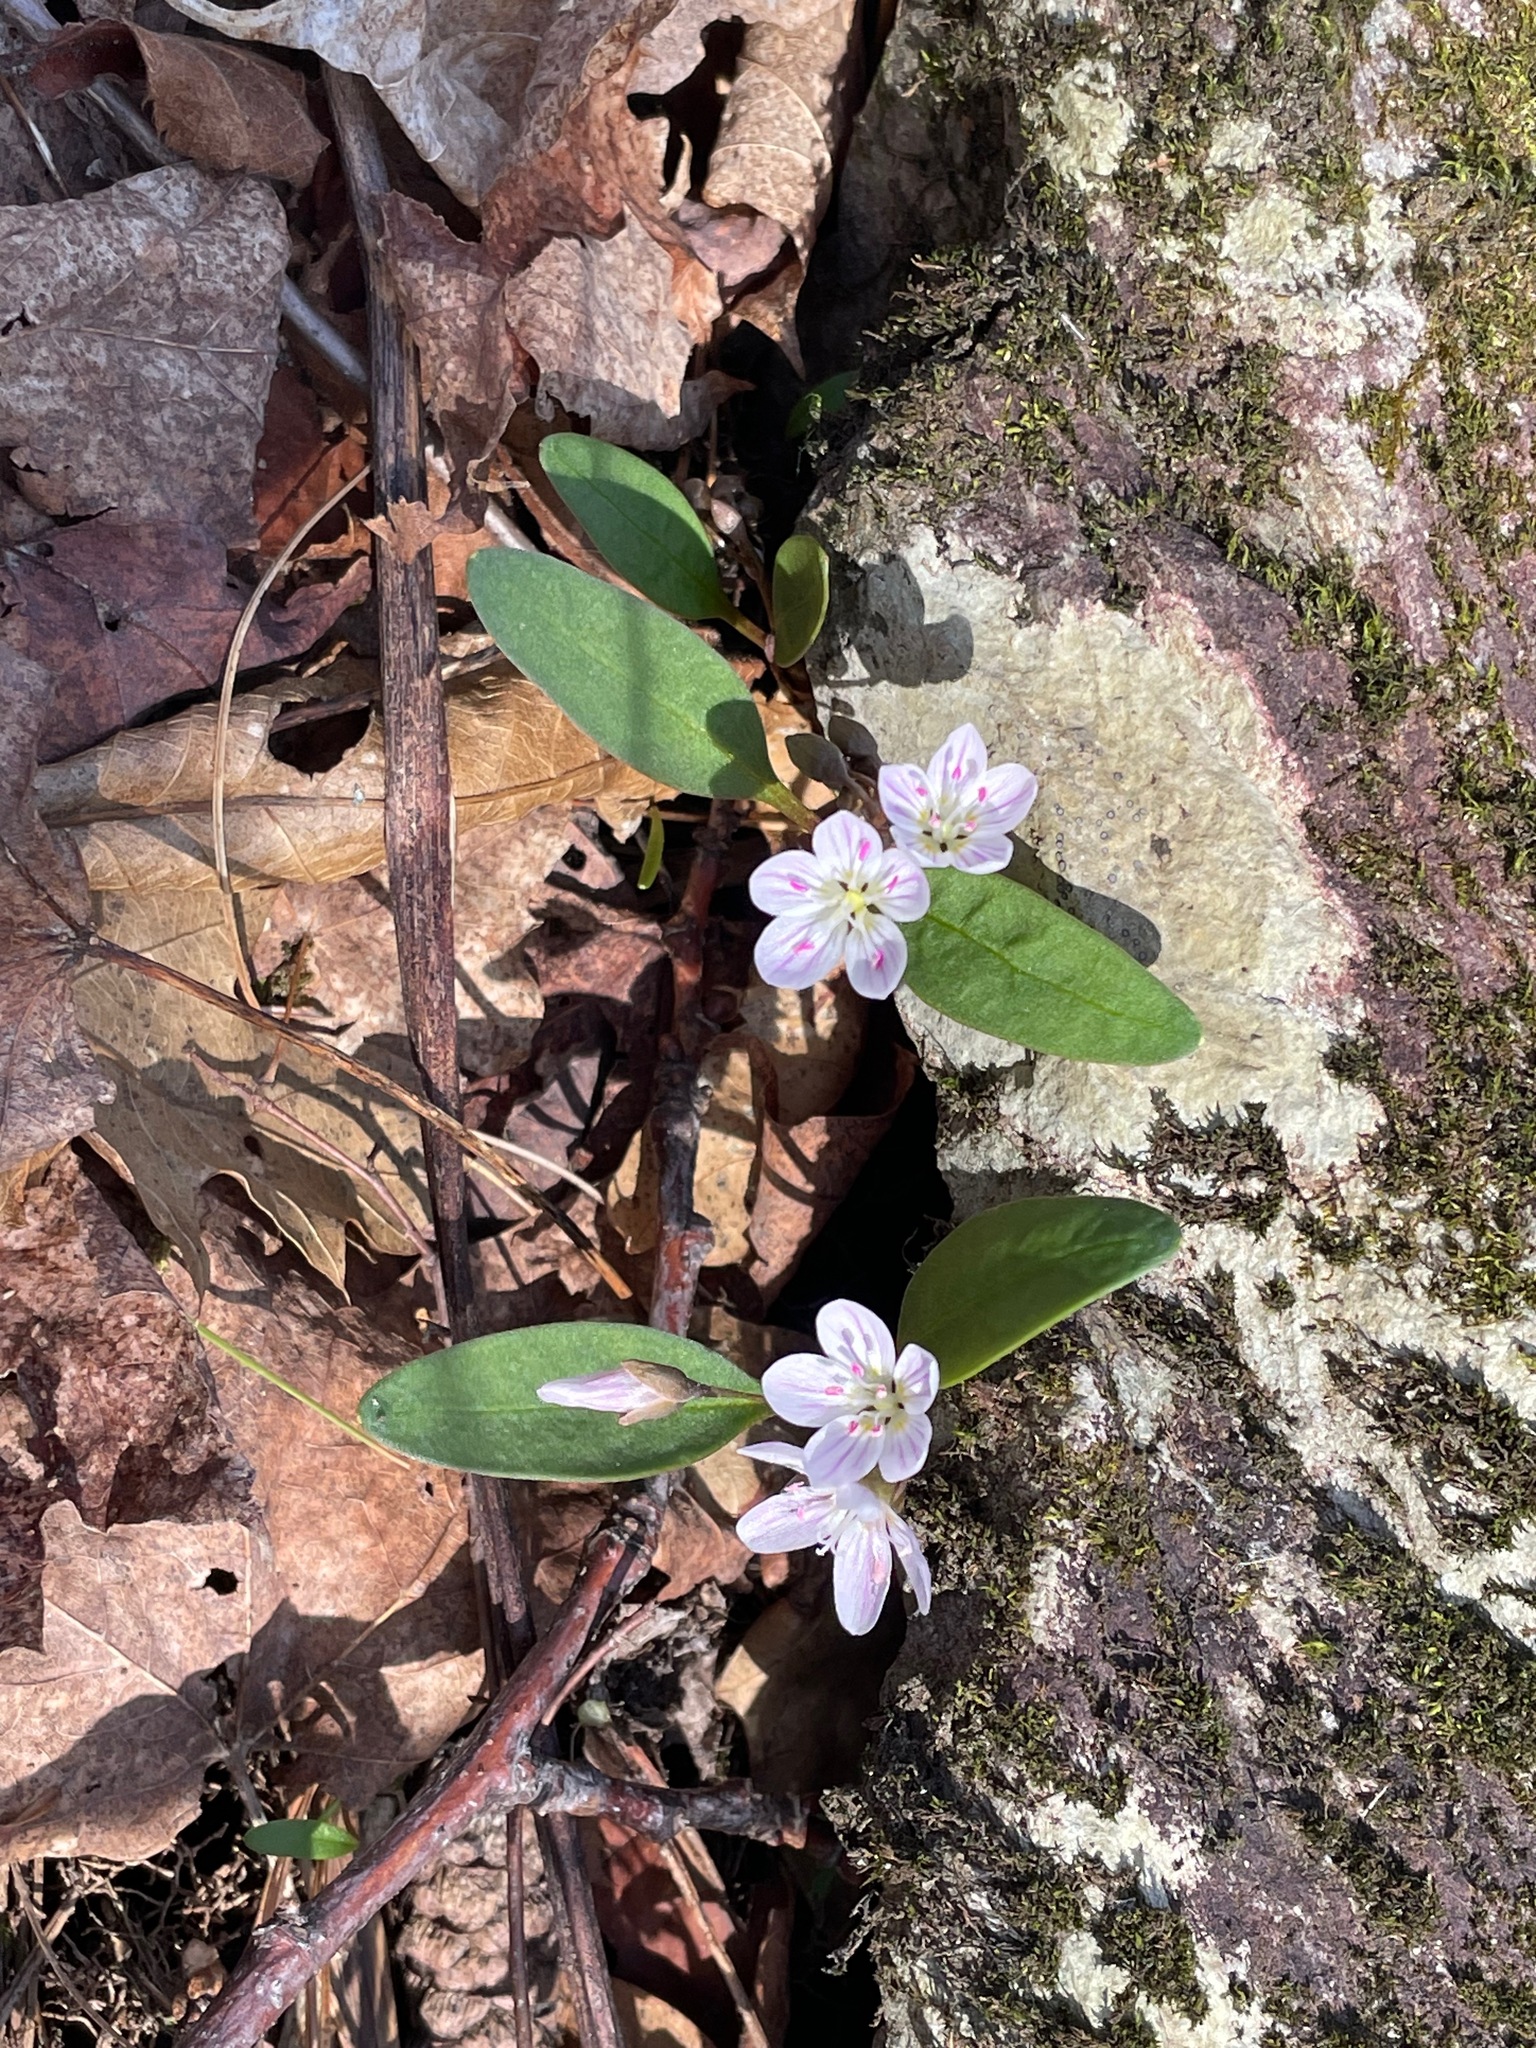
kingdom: Plantae
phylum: Tracheophyta
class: Magnoliopsida
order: Caryophyllales
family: Montiaceae
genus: Claytonia
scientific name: Claytonia caroliniana
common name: Carolina spring beauty
